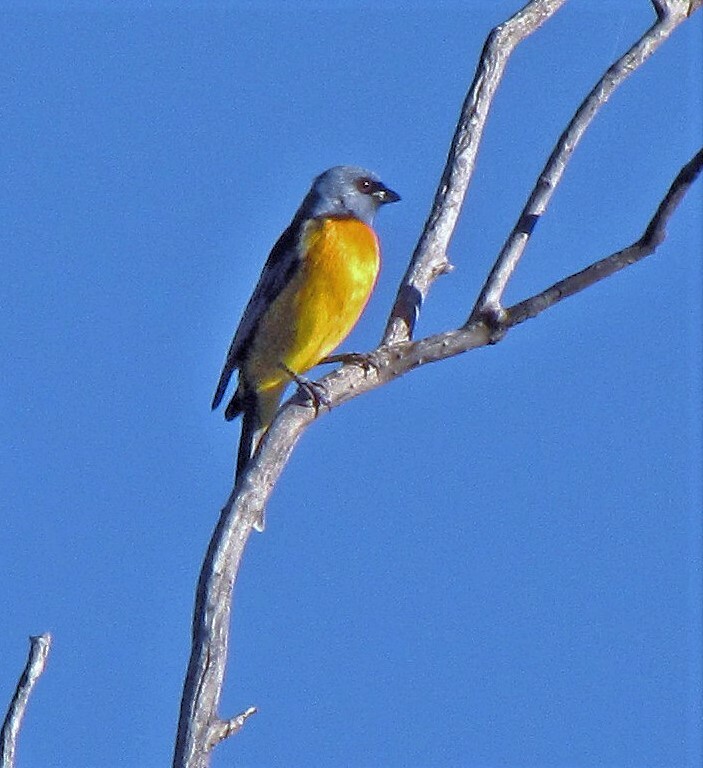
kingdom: Animalia
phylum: Chordata
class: Aves
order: Passeriformes
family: Thraupidae
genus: Rauenia
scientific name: Rauenia bonariensis
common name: Blue-and-yellow tanager
